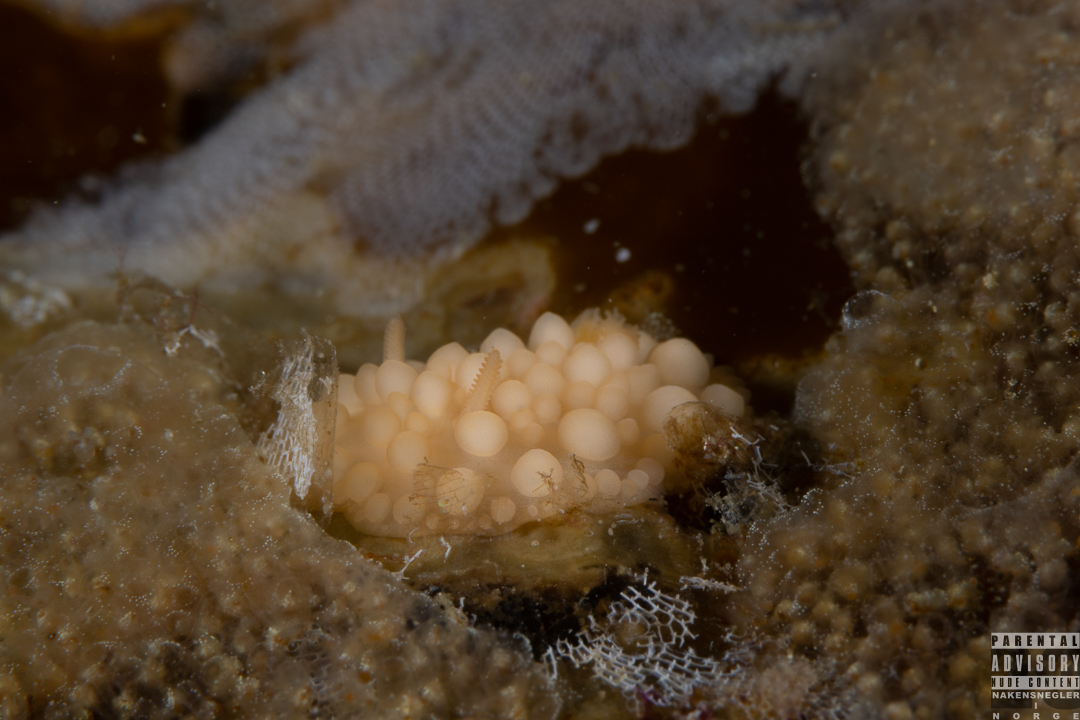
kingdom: Animalia
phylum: Mollusca
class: Gastropoda
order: Nudibranchia
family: Onchidorididae
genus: Adalaria
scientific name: Adalaria loveni
